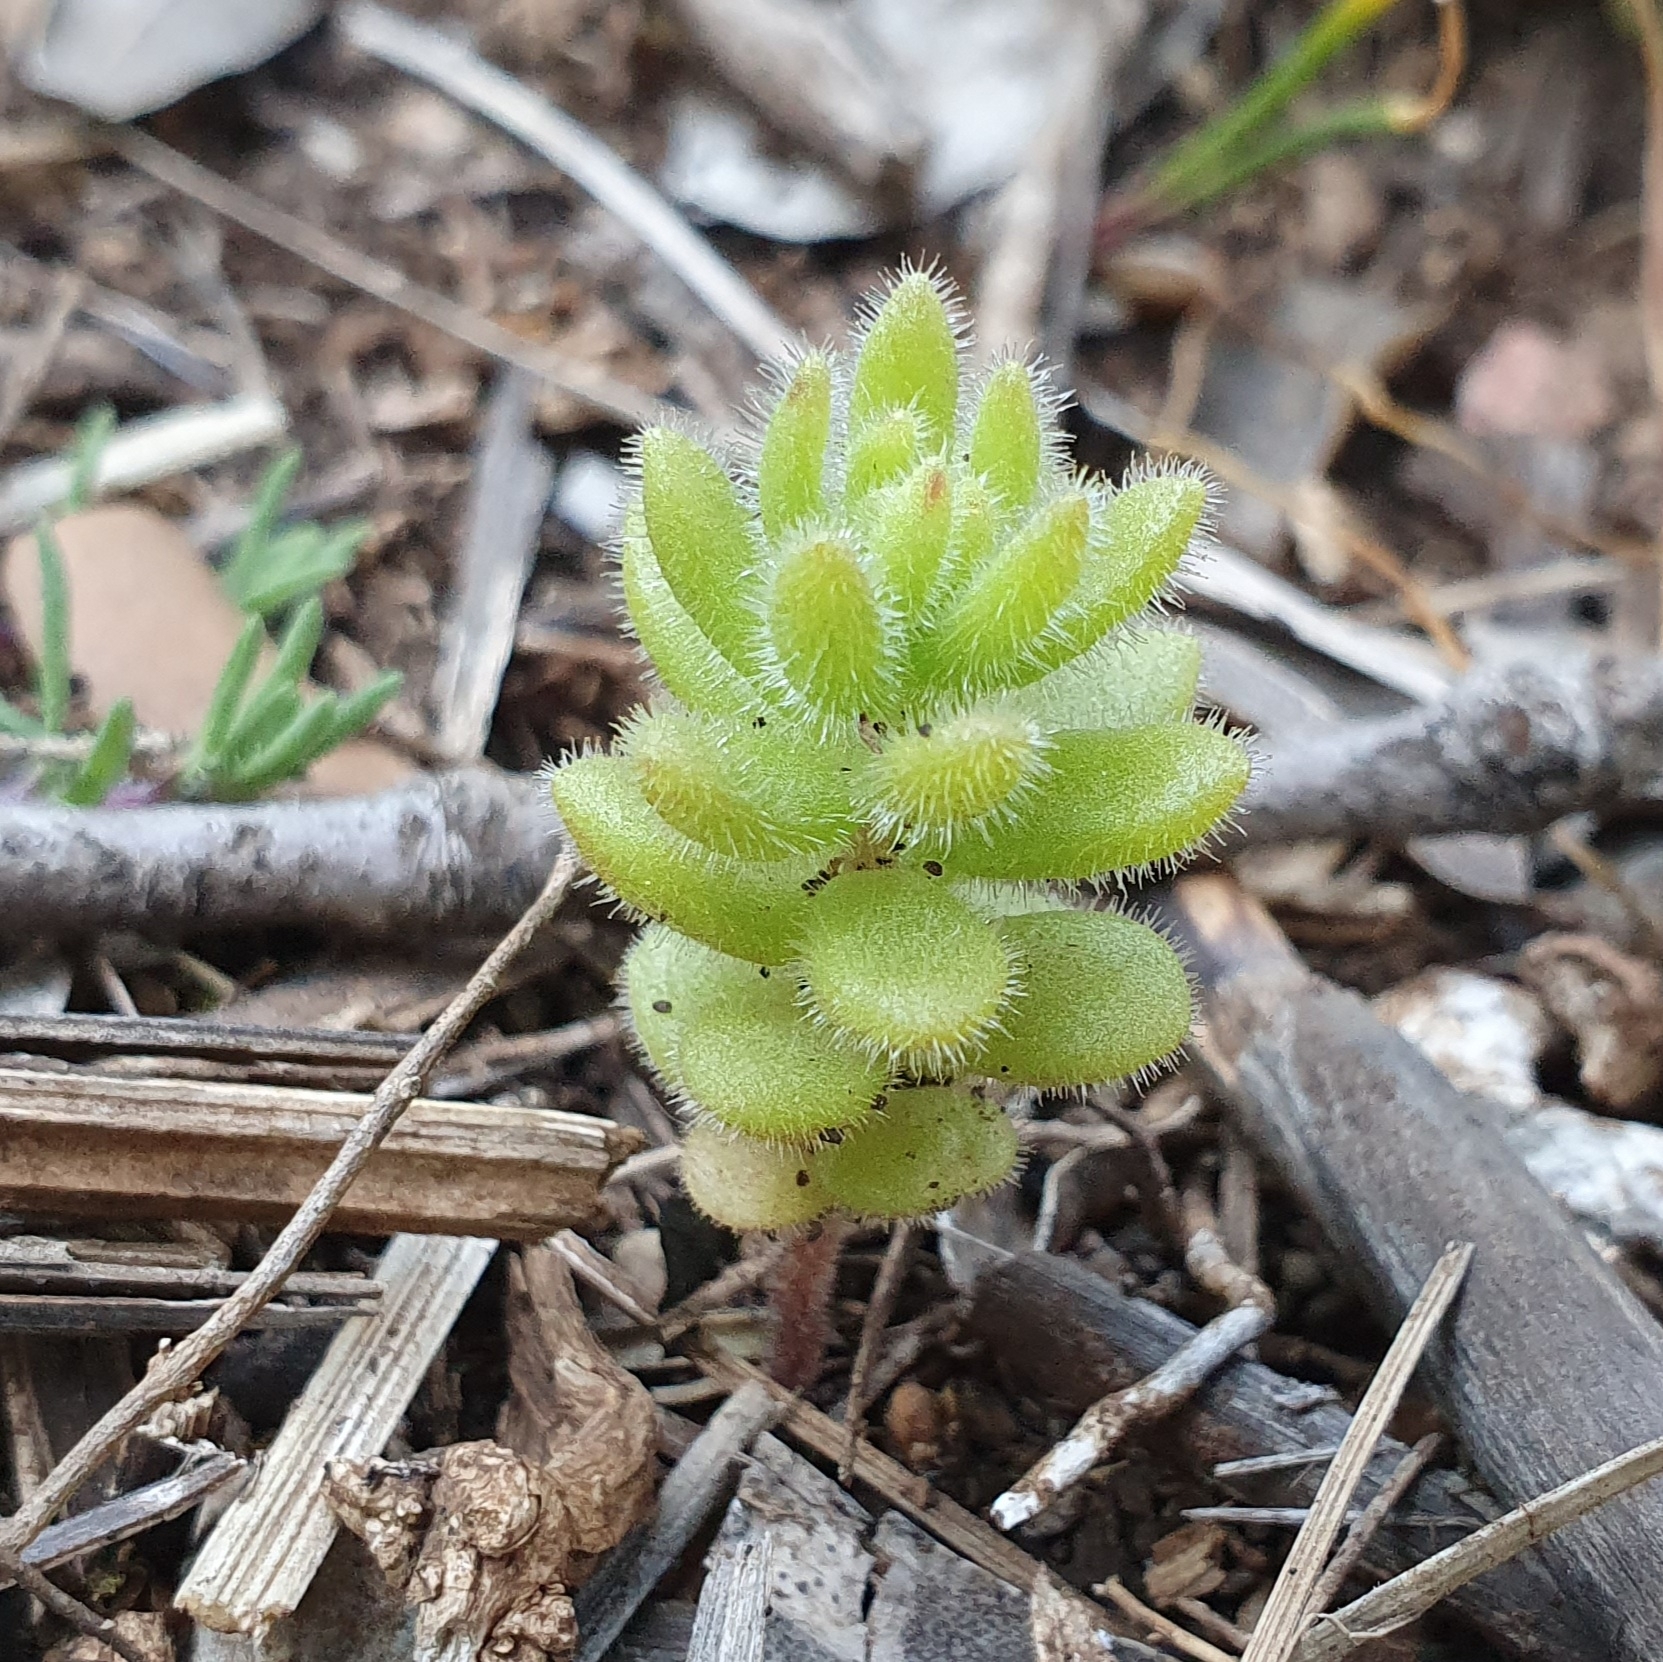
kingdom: Plantae
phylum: Tracheophyta
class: Magnoliopsida
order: Saxifragales
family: Crassulaceae
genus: Sedum
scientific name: Sedum pubescens
